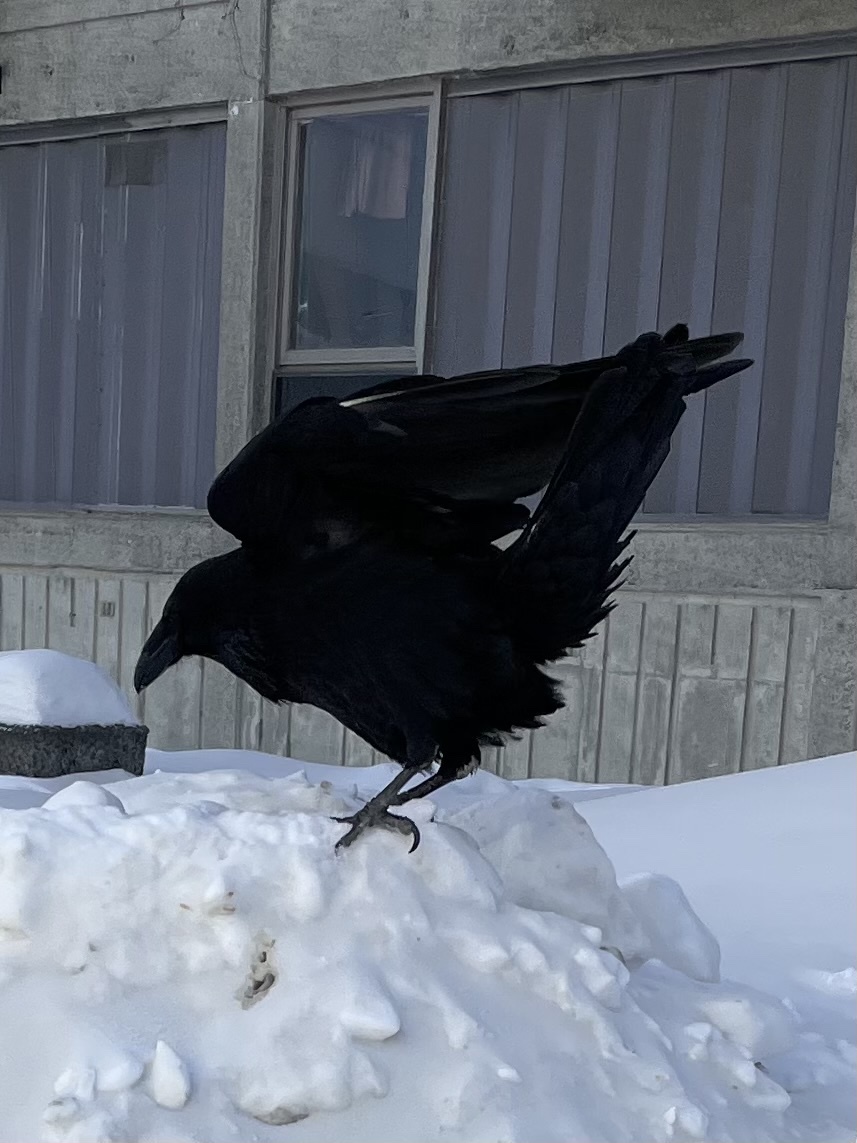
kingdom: Animalia
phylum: Chordata
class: Aves
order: Passeriformes
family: Corvidae
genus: Corvus
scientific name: Corvus corax
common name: Common raven
